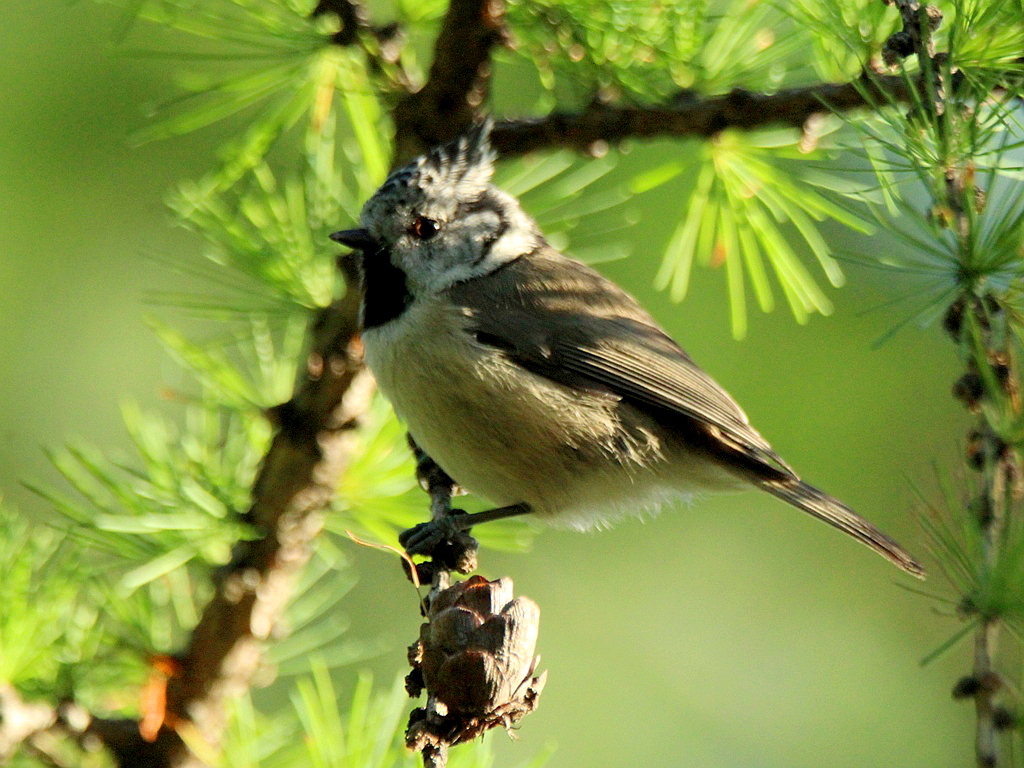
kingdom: Animalia
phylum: Chordata
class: Aves
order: Passeriformes
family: Paridae
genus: Lophophanes
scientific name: Lophophanes cristatus
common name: European crested tit
